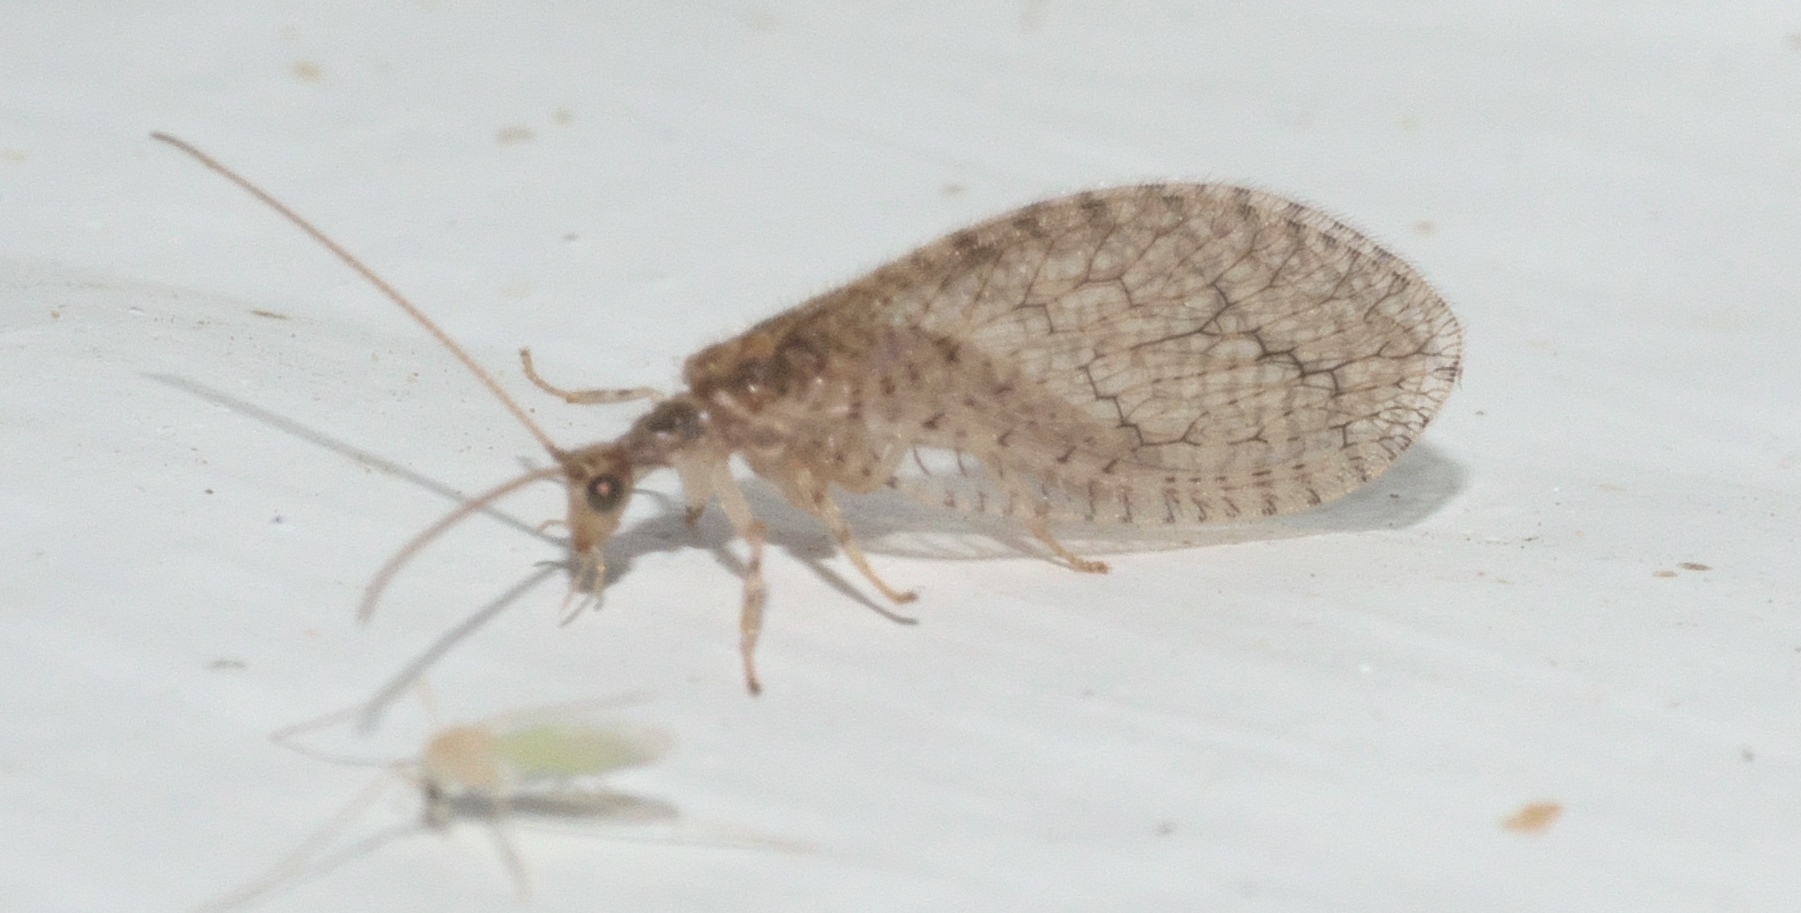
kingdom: Animalia
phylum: Arthropoda
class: Insecta
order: Neuroptera
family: Hemerobiidae
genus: Micromus
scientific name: Micromus posticus
